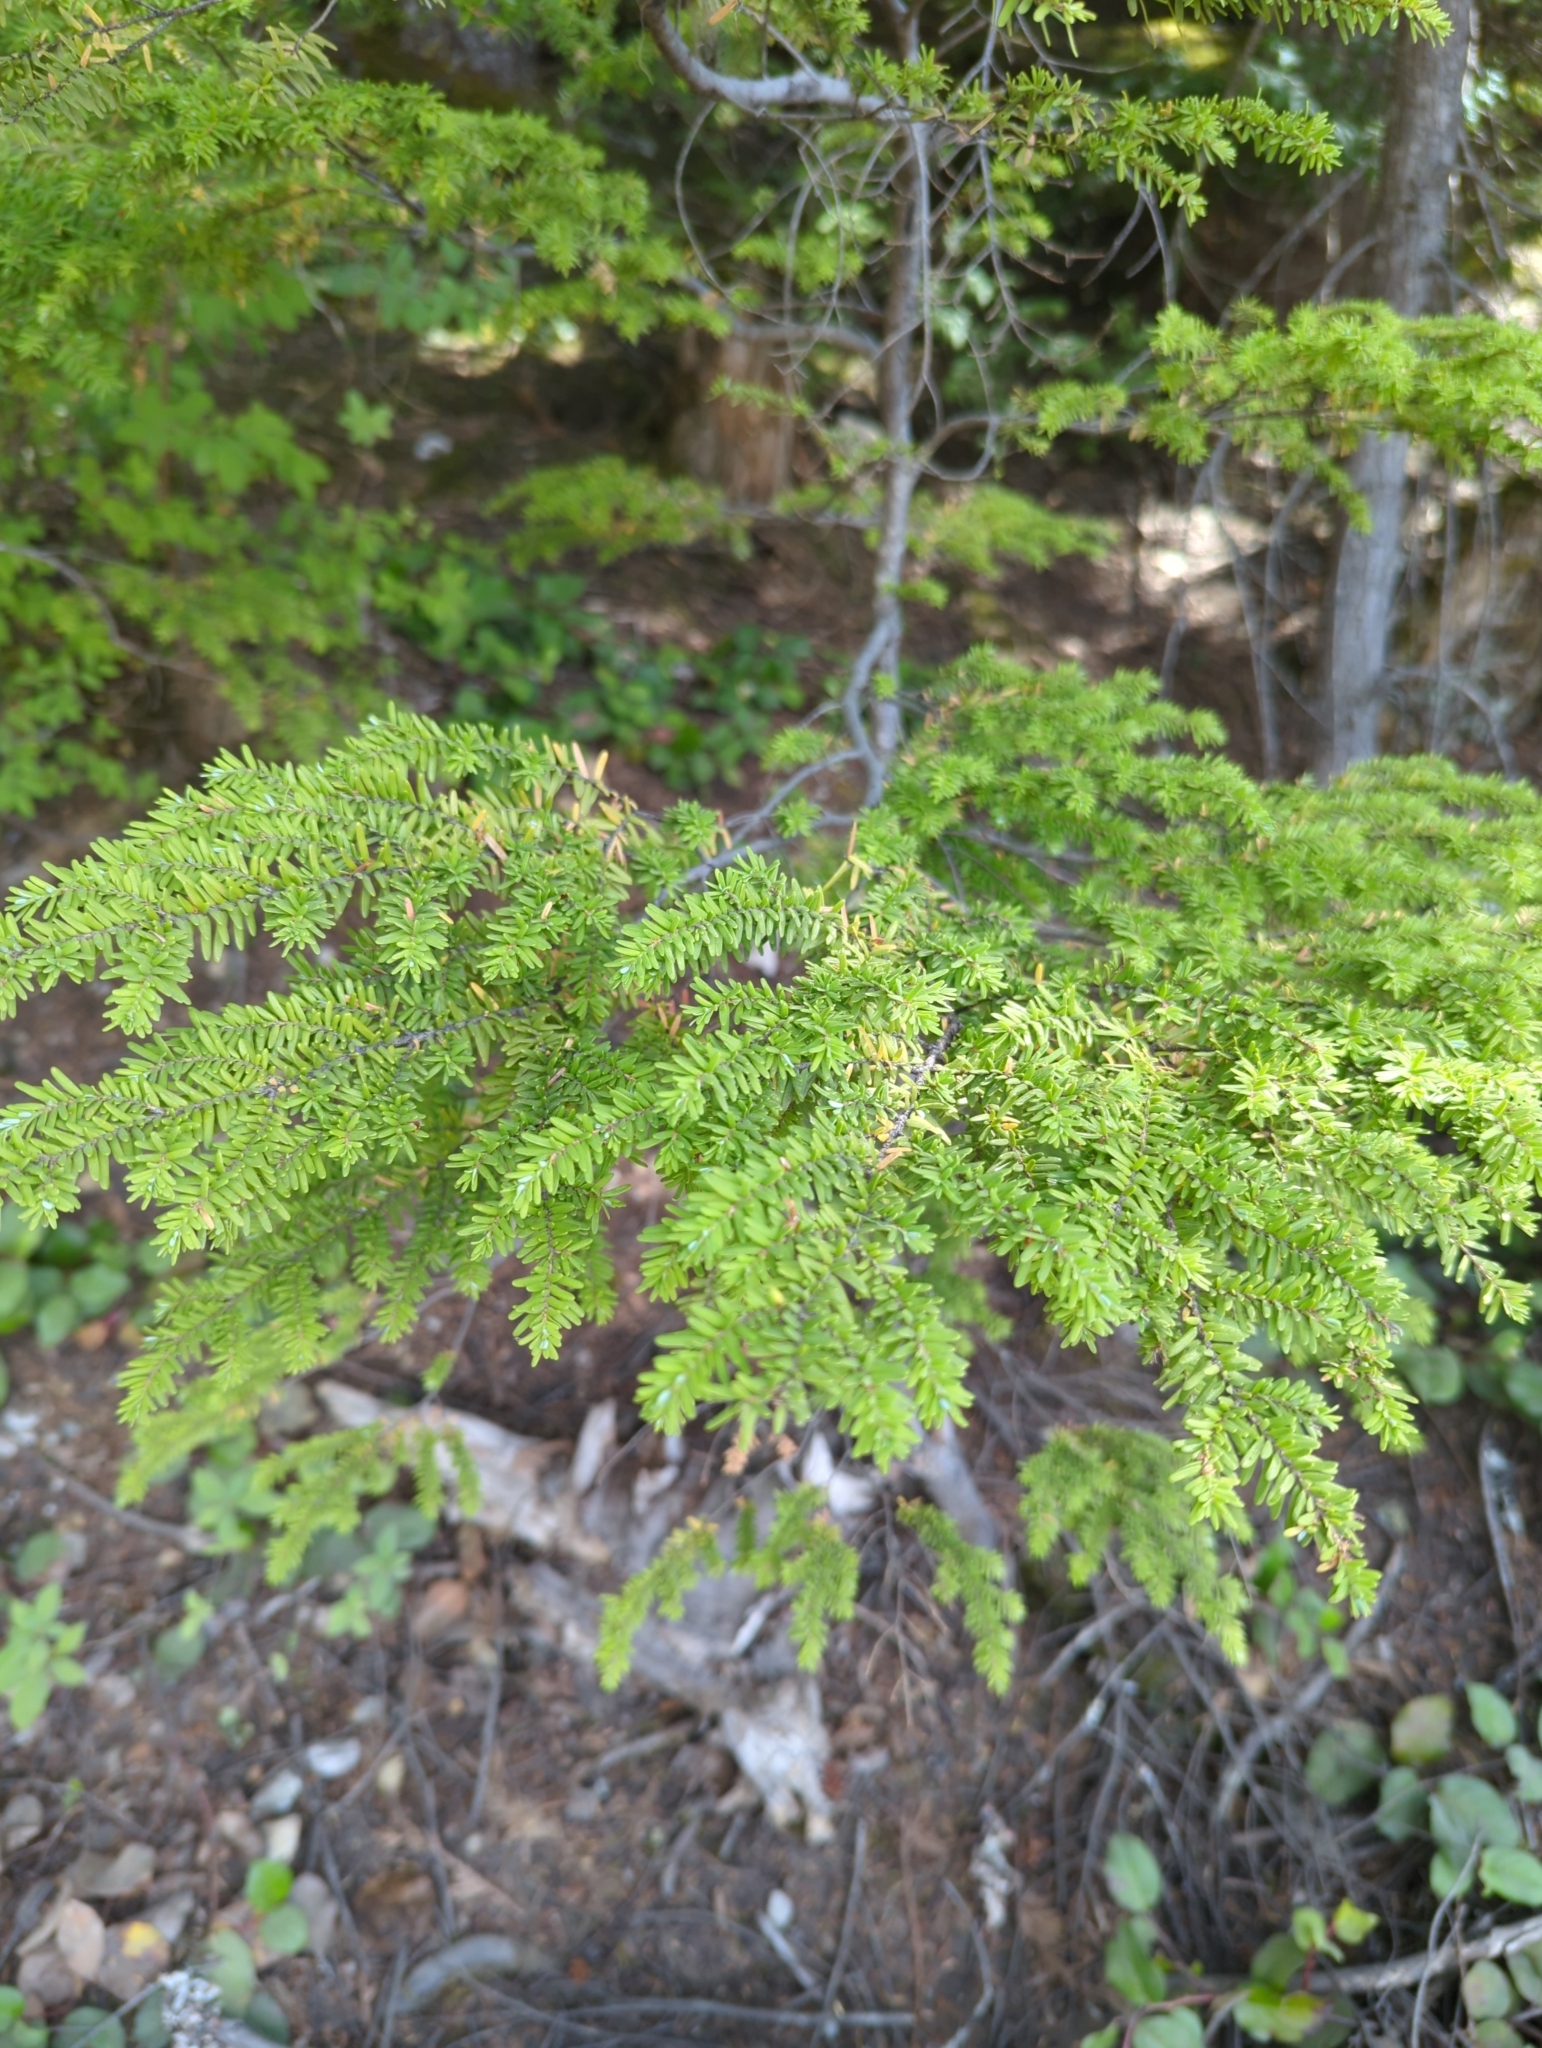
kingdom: Plantae
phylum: Tracheophyta
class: Pinopsida
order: Pinales
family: Pinaceae
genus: Tsuga
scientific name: Tsuga heterophylla
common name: Western hemlock
